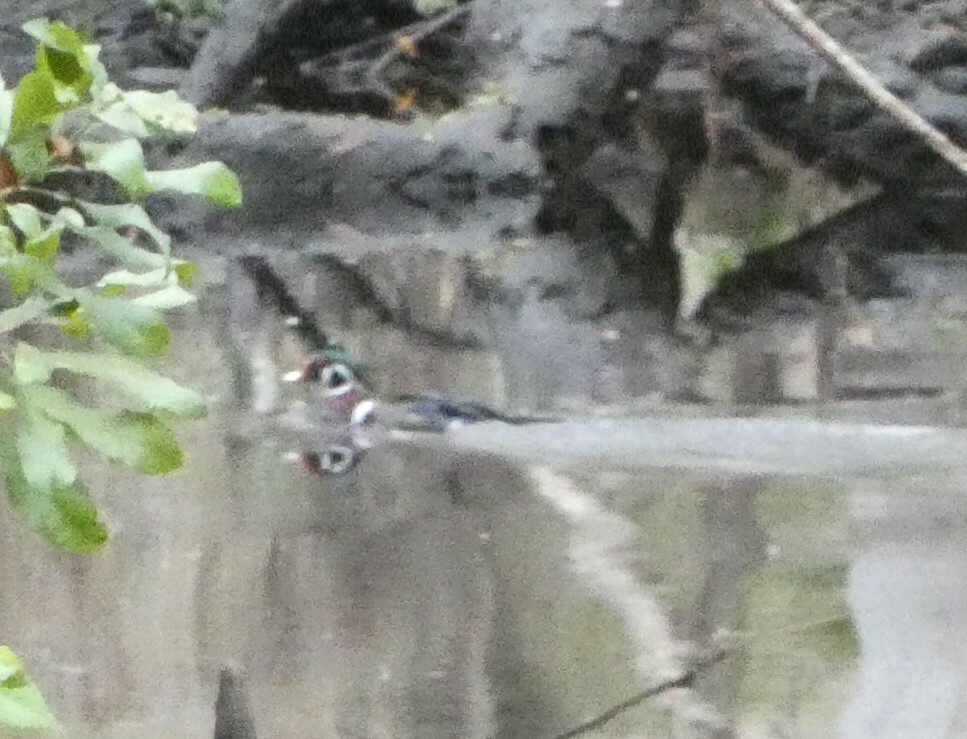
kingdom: Animalia
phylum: Chordata
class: Aves
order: Anseriformes
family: Anatidae
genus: Aix
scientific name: Aix sponsa
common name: Wood duck
